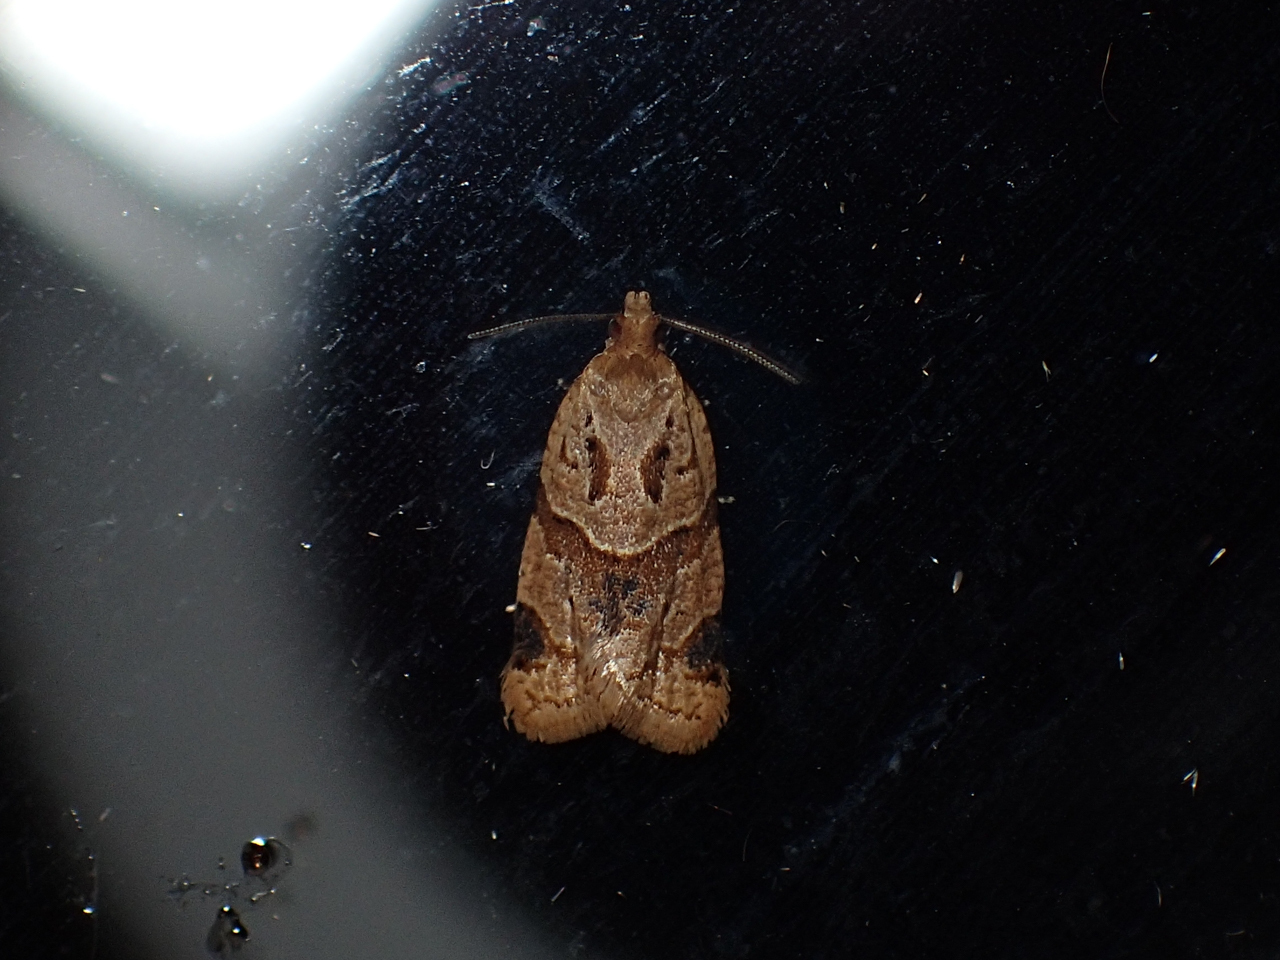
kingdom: Animalia
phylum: Arthropoda
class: Insecta
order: Lepidoptera
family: Tortricidae
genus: Clepsis
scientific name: Clepsis peritana
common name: Garden tortrix
